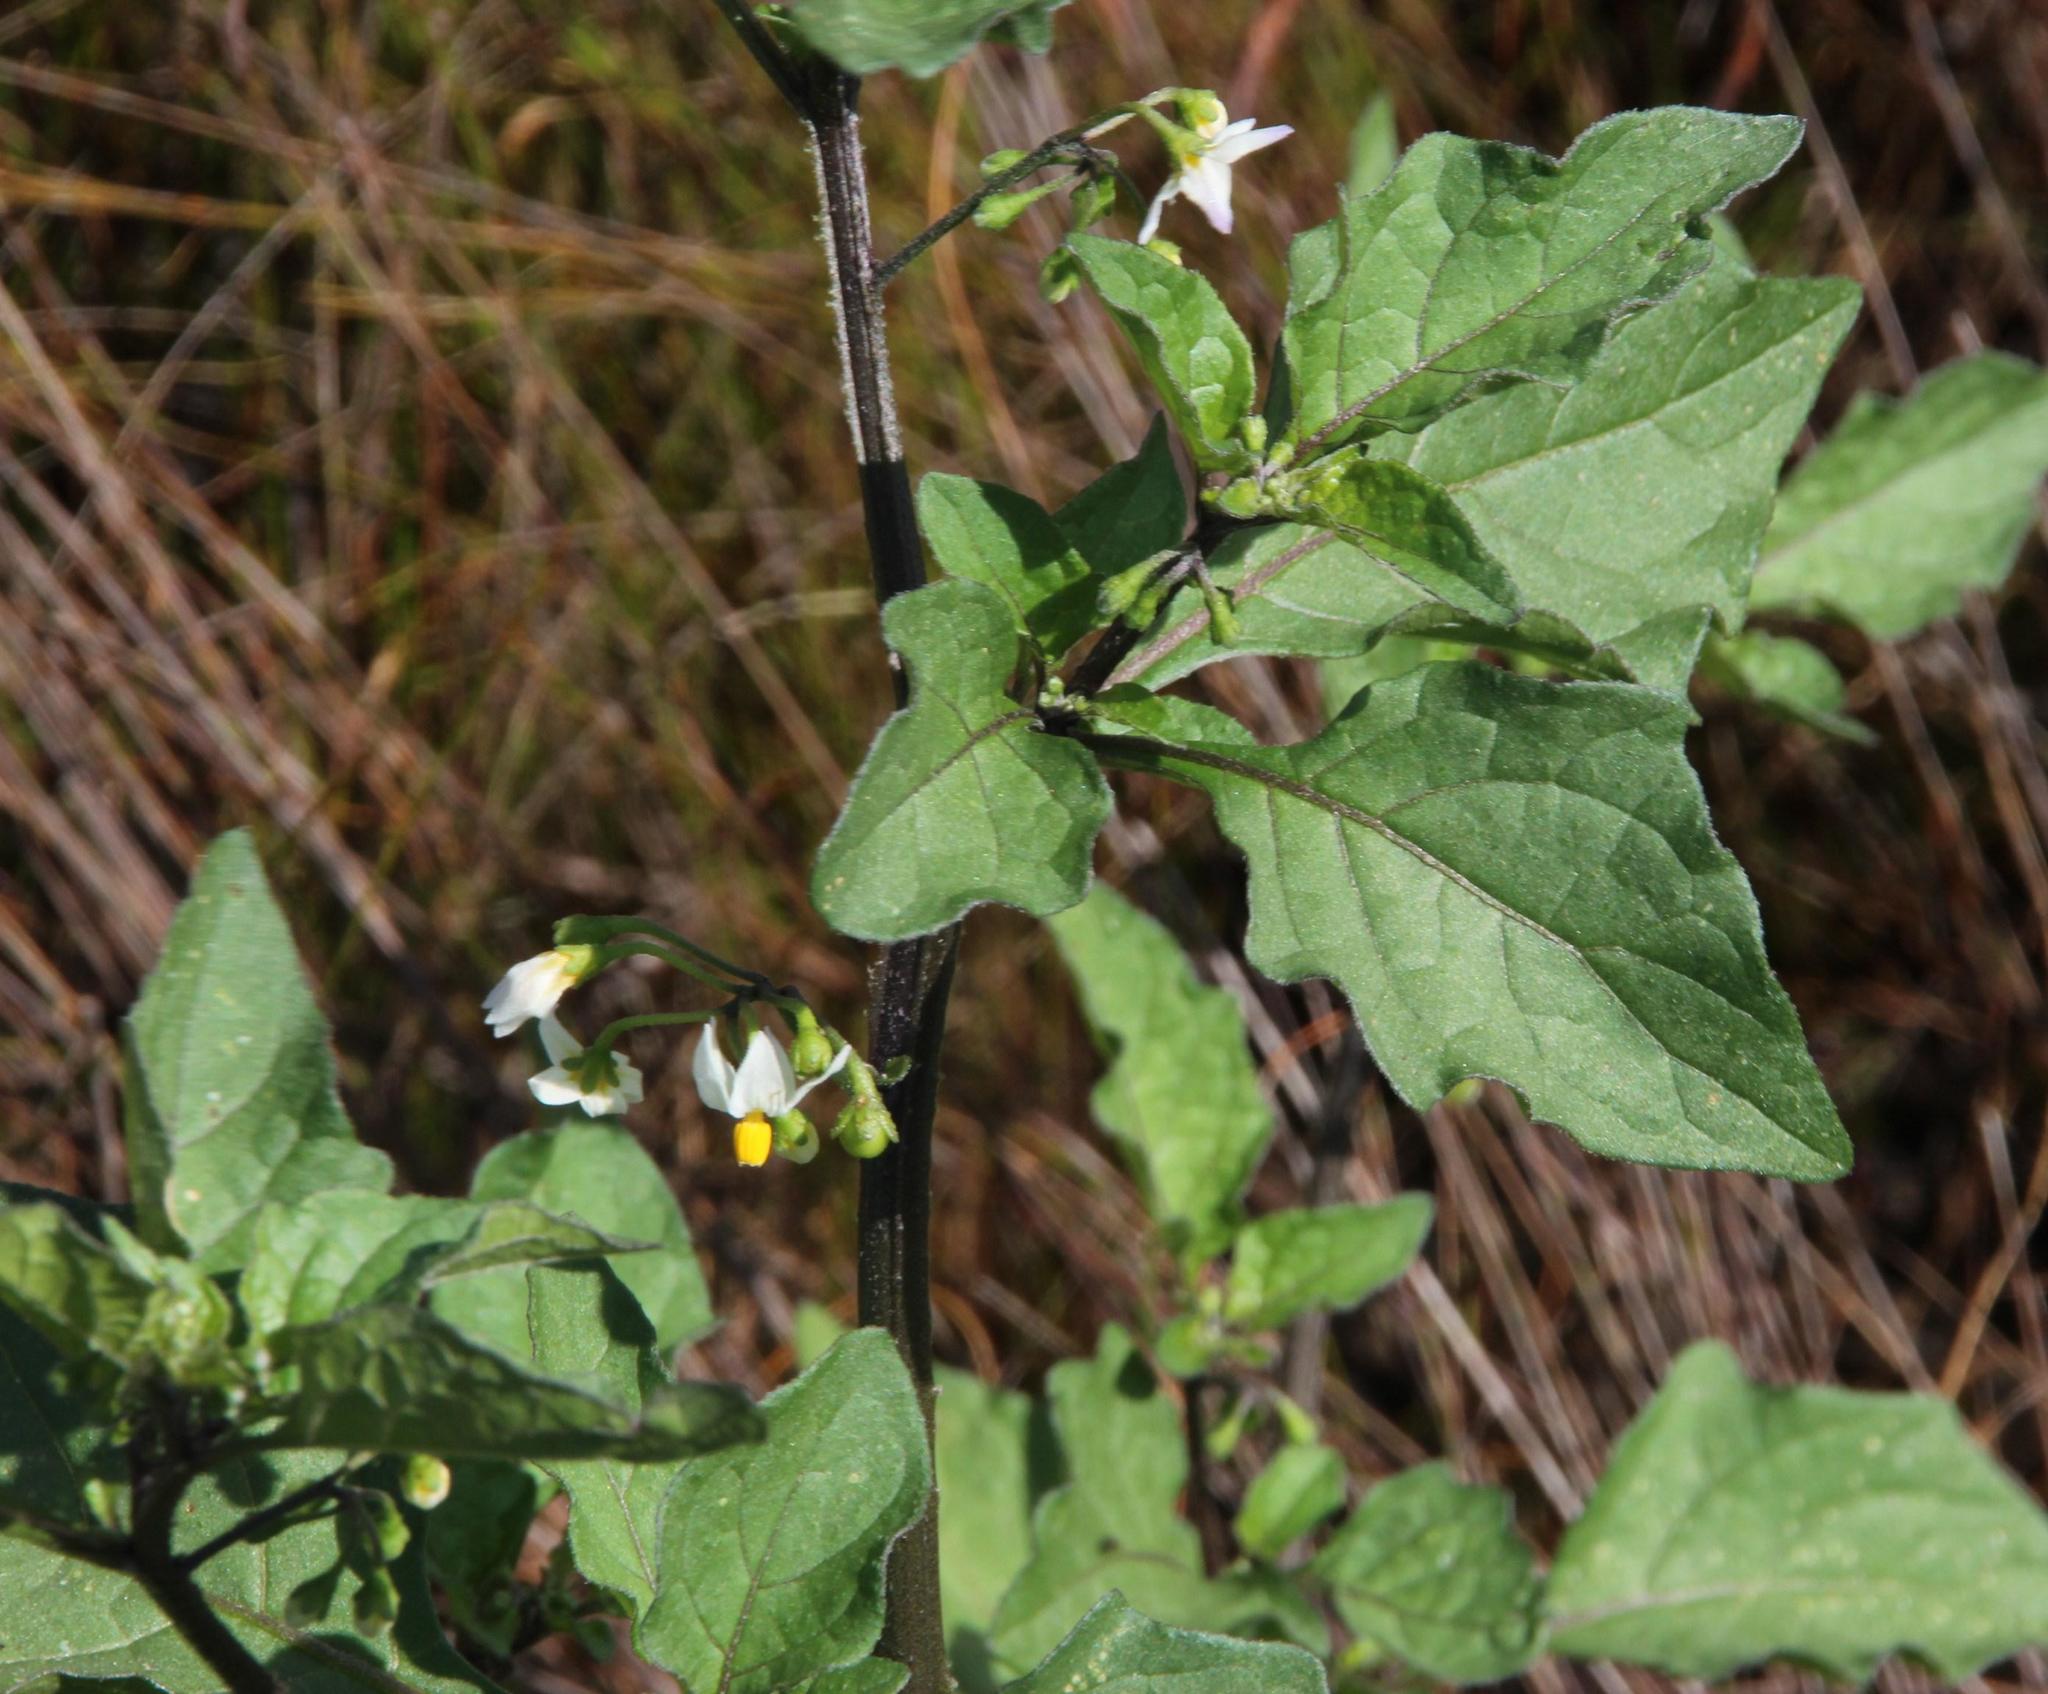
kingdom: Plantae
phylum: Tracheophyta
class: Magnoliopsida
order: Solanales
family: Solanaceae
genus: Solanum
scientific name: Solanum nigrum
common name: Black nightshade
